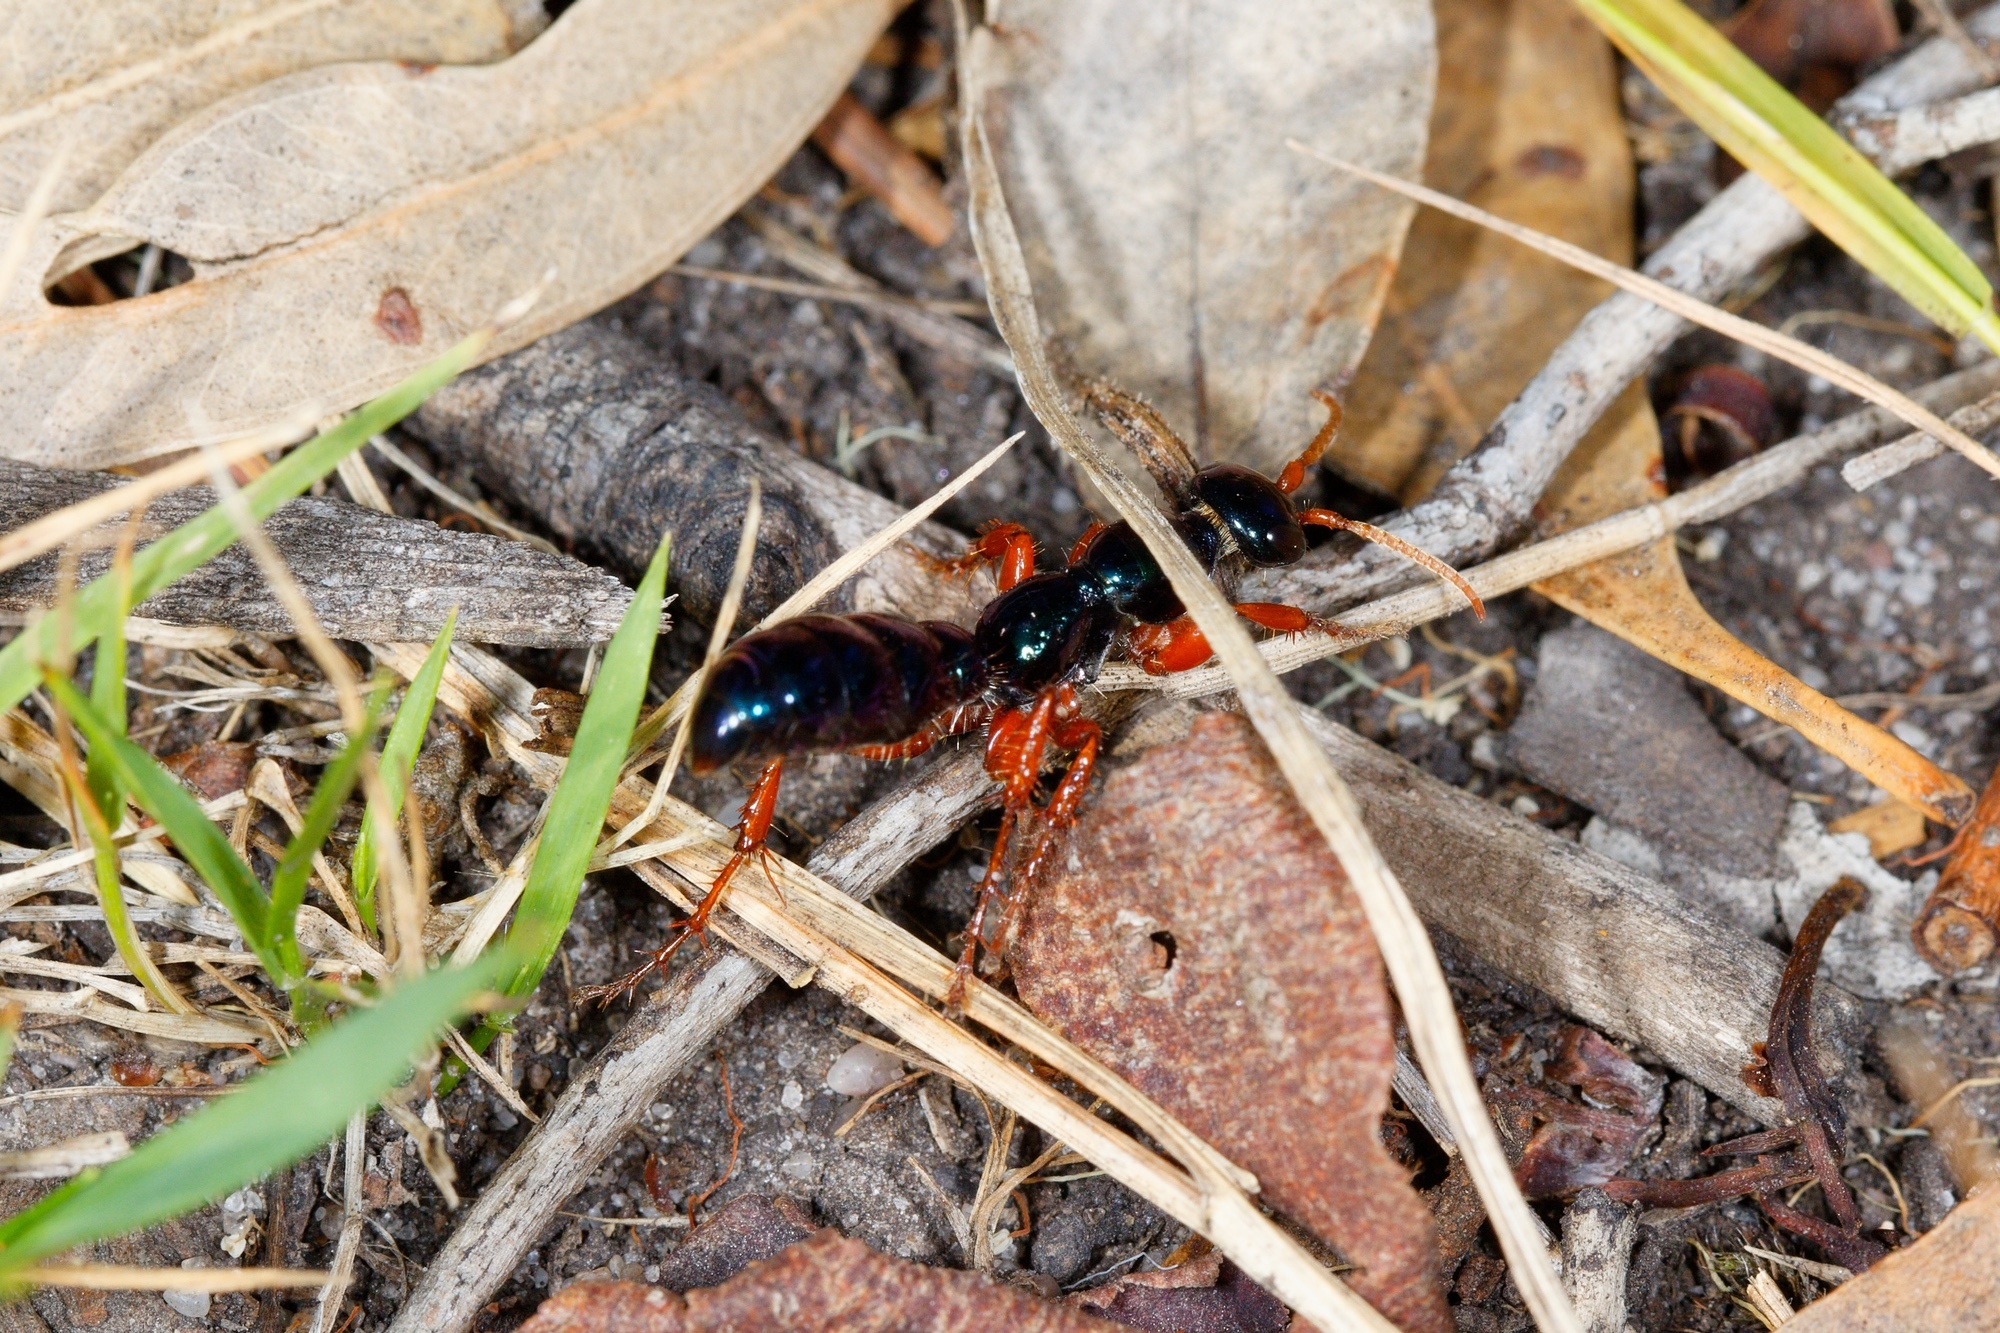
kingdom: Animalia
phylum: Arthropoda
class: Insecta
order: Hymenoptera
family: Tiphiidae
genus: Diamma
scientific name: Diamma
